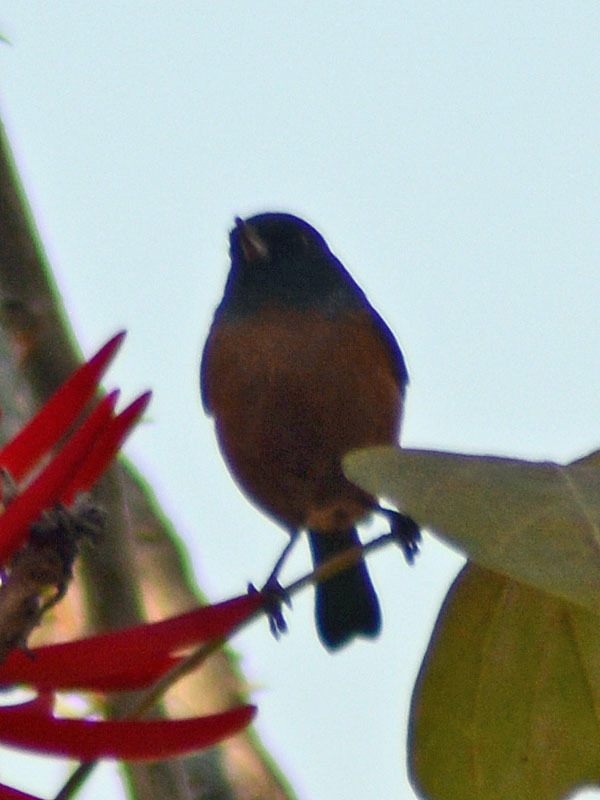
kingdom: Animalia
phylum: Chordata
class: Aves
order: Passeriformes
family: Thraupidae
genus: Diglossa
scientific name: Diglossa baritula
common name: Cinnamon-bellied flowerpiercer
